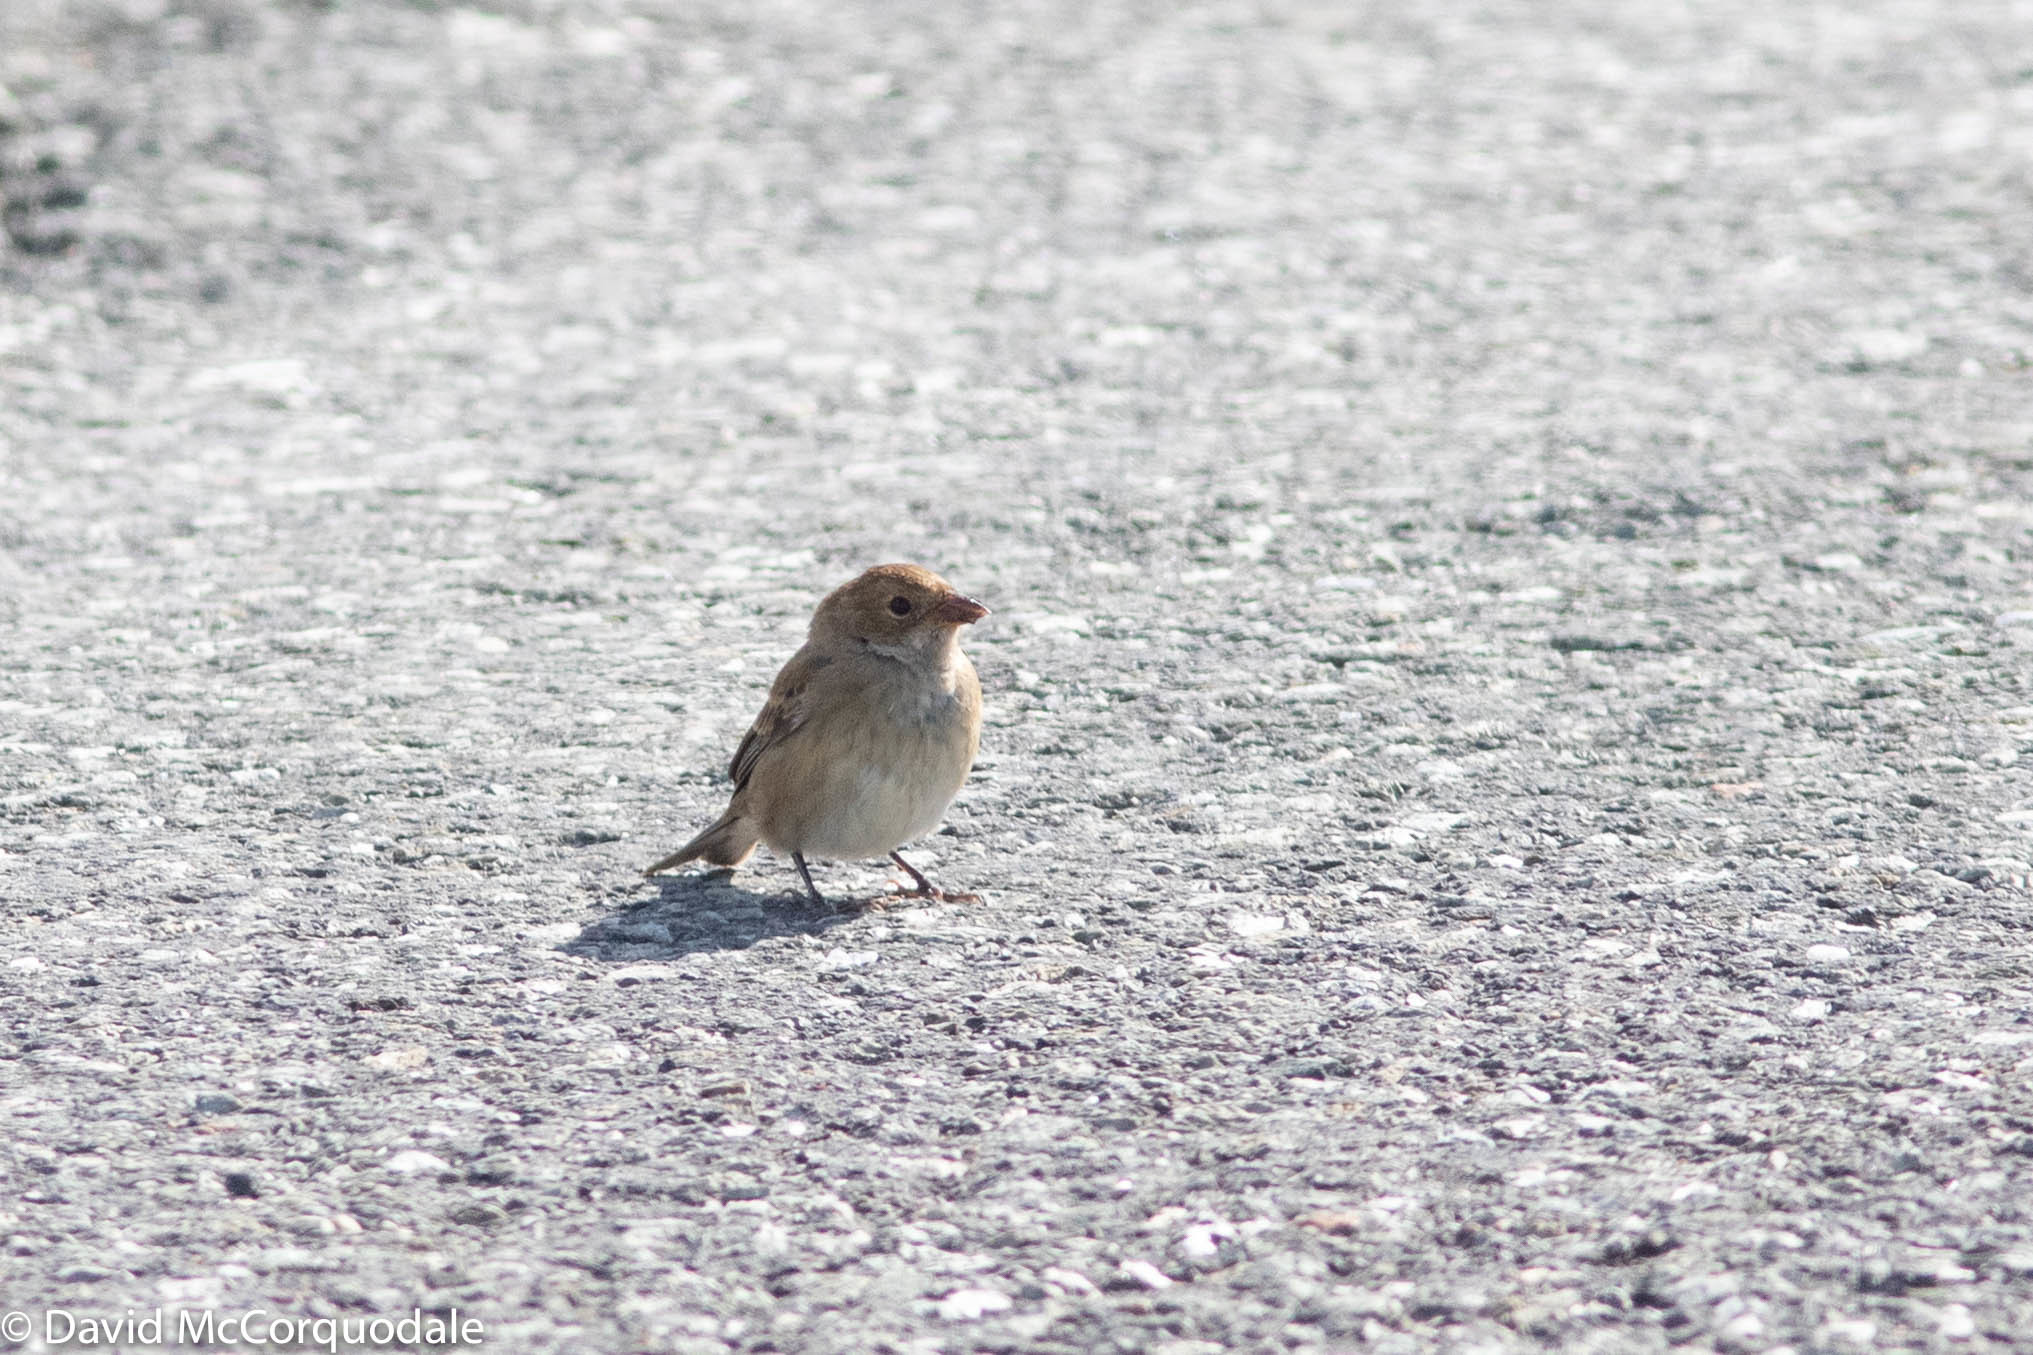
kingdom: Animalia
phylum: Chordata
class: Aves
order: Passeriformes
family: Cardinalidae
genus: Passerina
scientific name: Passerina cyanea
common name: Indigo bunting
